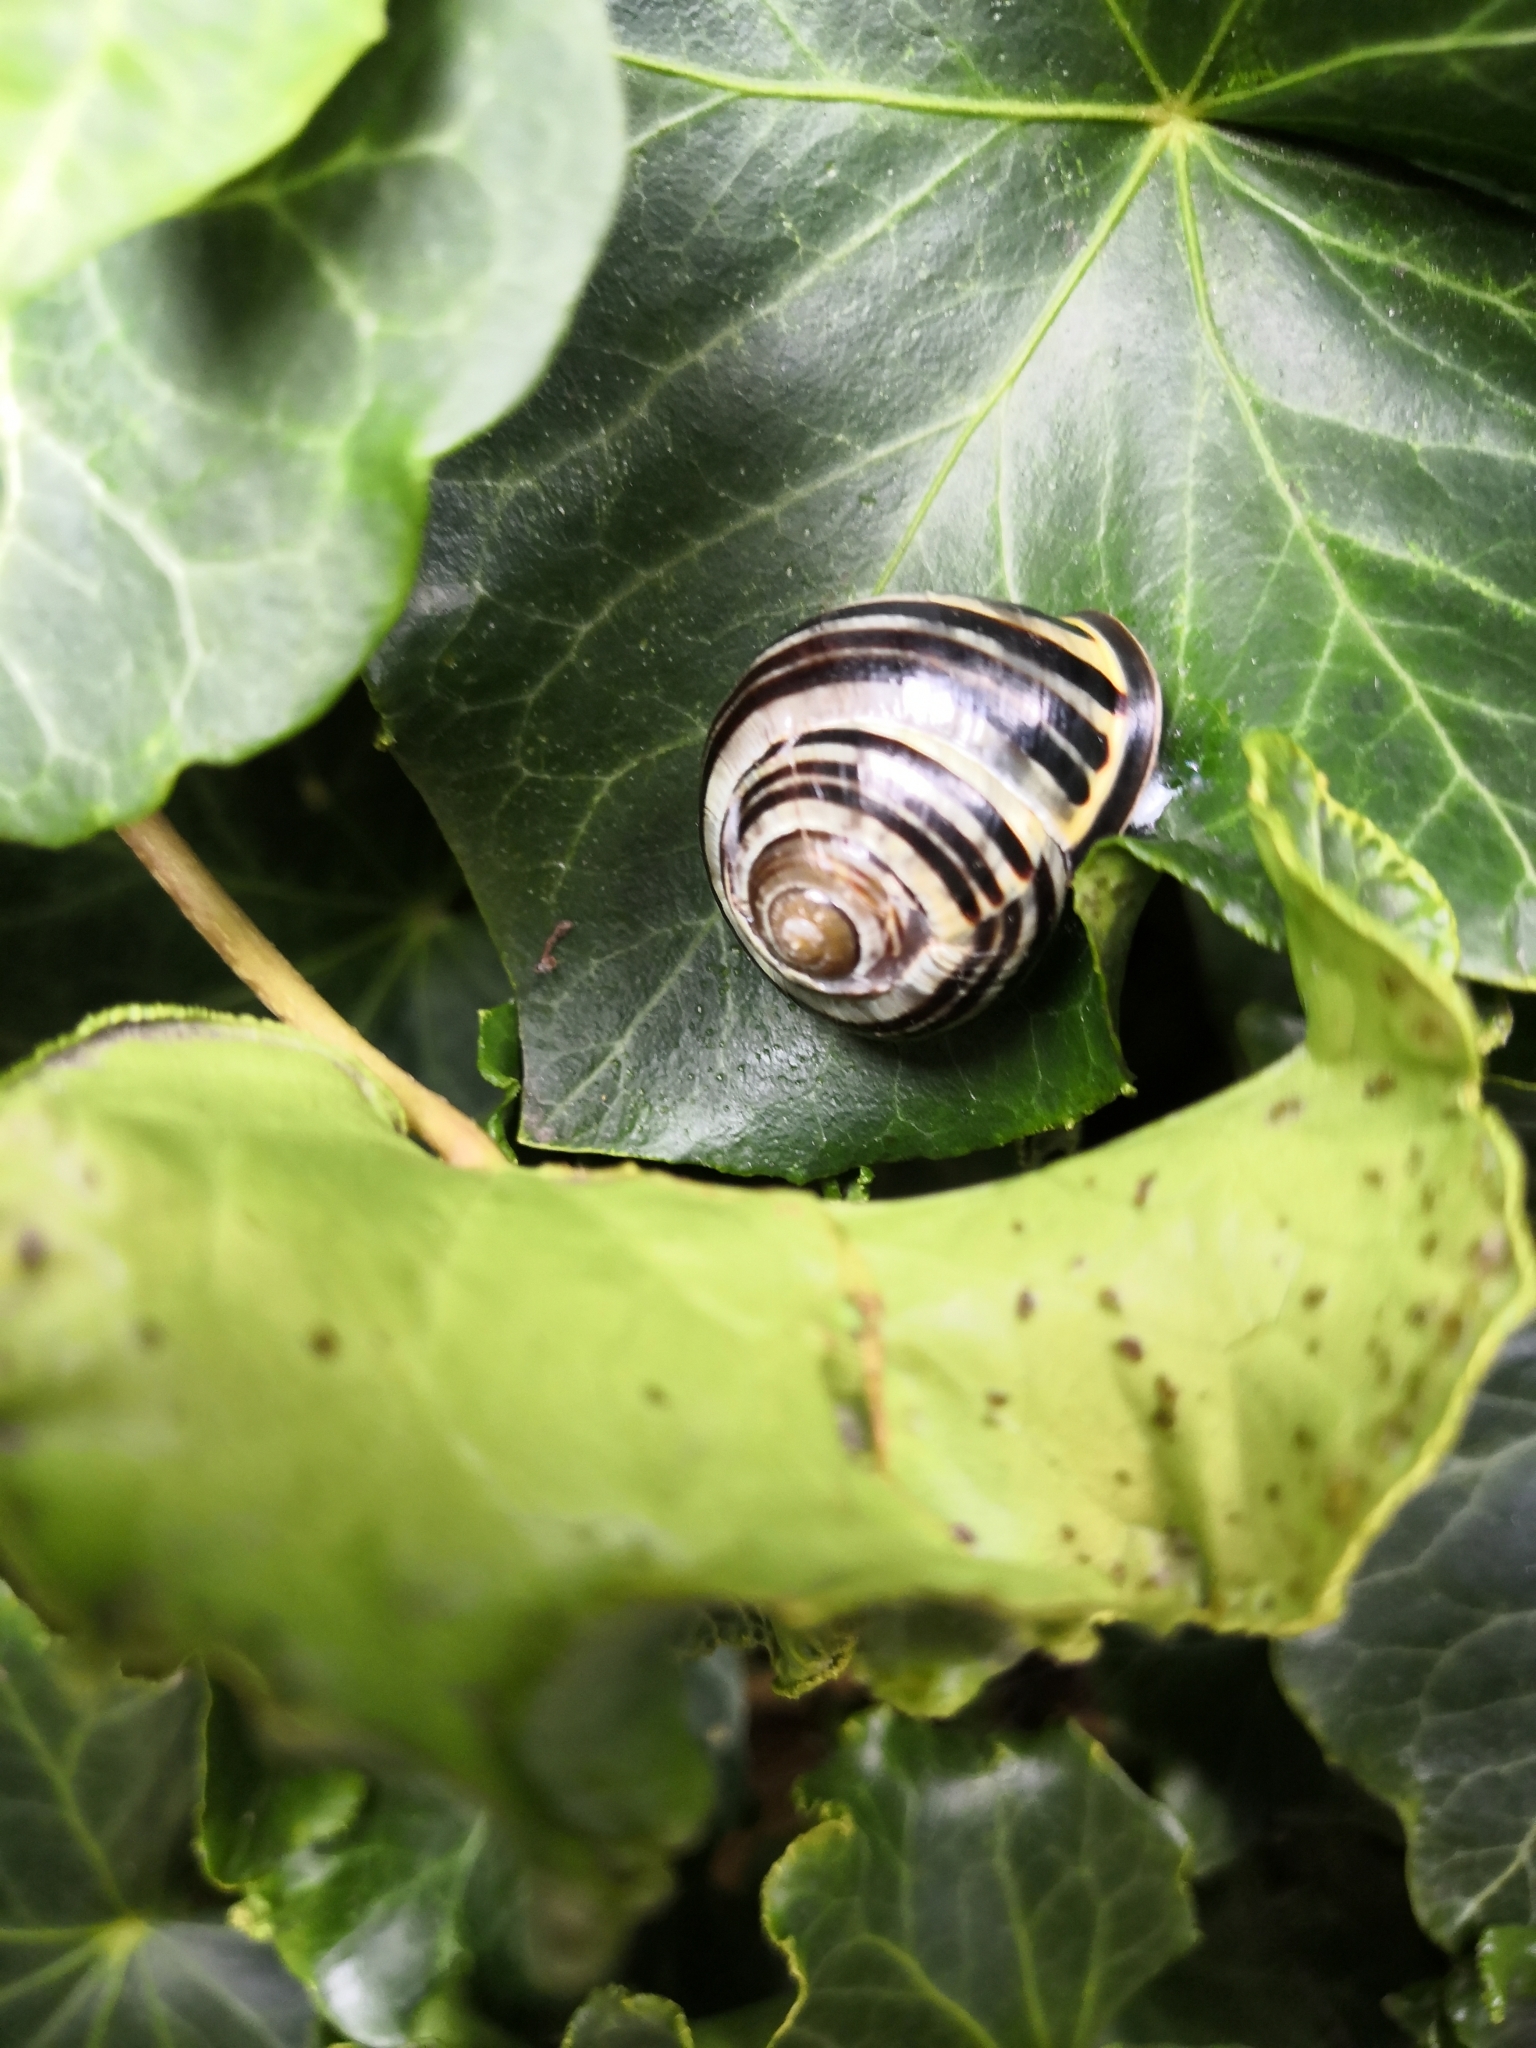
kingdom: Animalia
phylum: Mollusca
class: Gastropoda
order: Stylommatophora
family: Helicidae
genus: Cepaea
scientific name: Cepaea nemoralis
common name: Grovesnail
